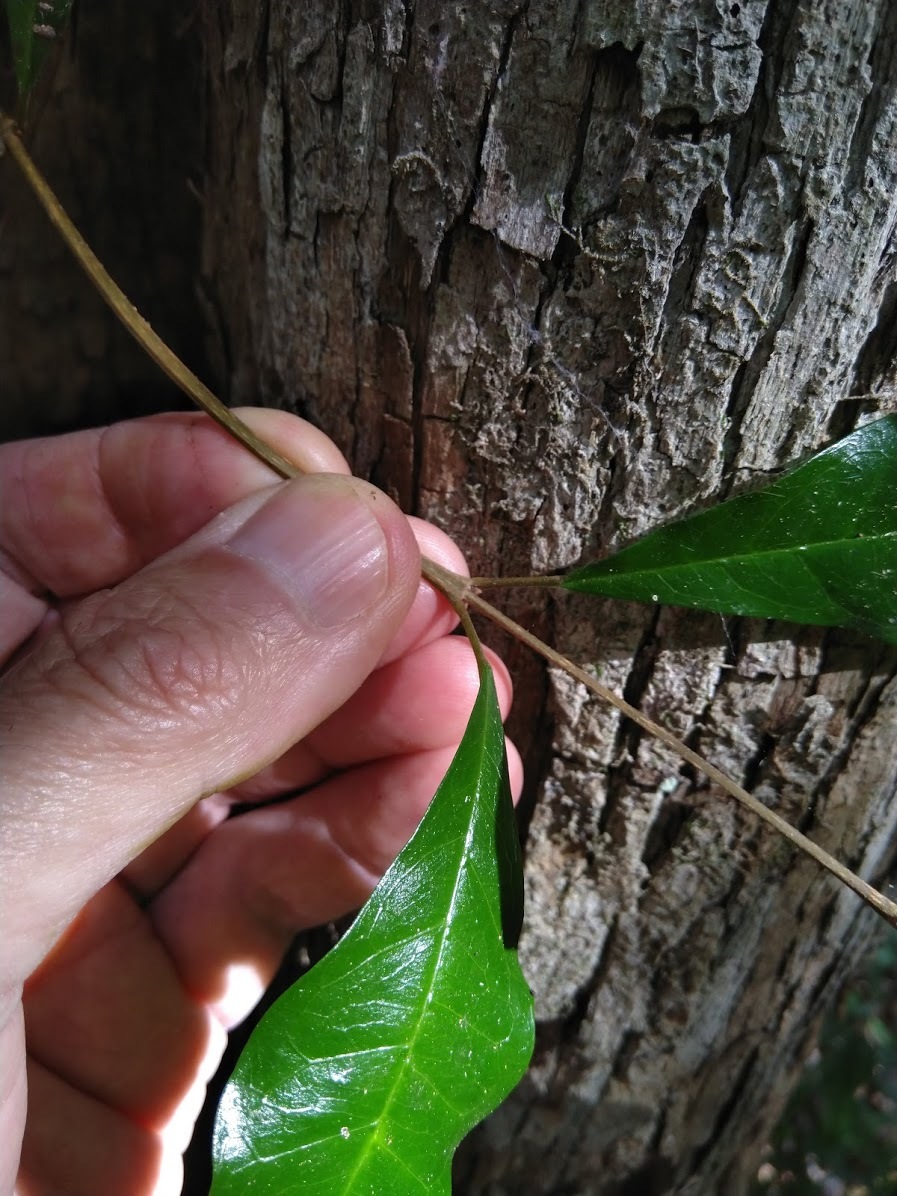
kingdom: Plantae
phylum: Tracheophyta
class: Magnoliopsida
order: Lamiales
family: Lamiaceae
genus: Vitex
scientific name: Vitex lignum-vitae
